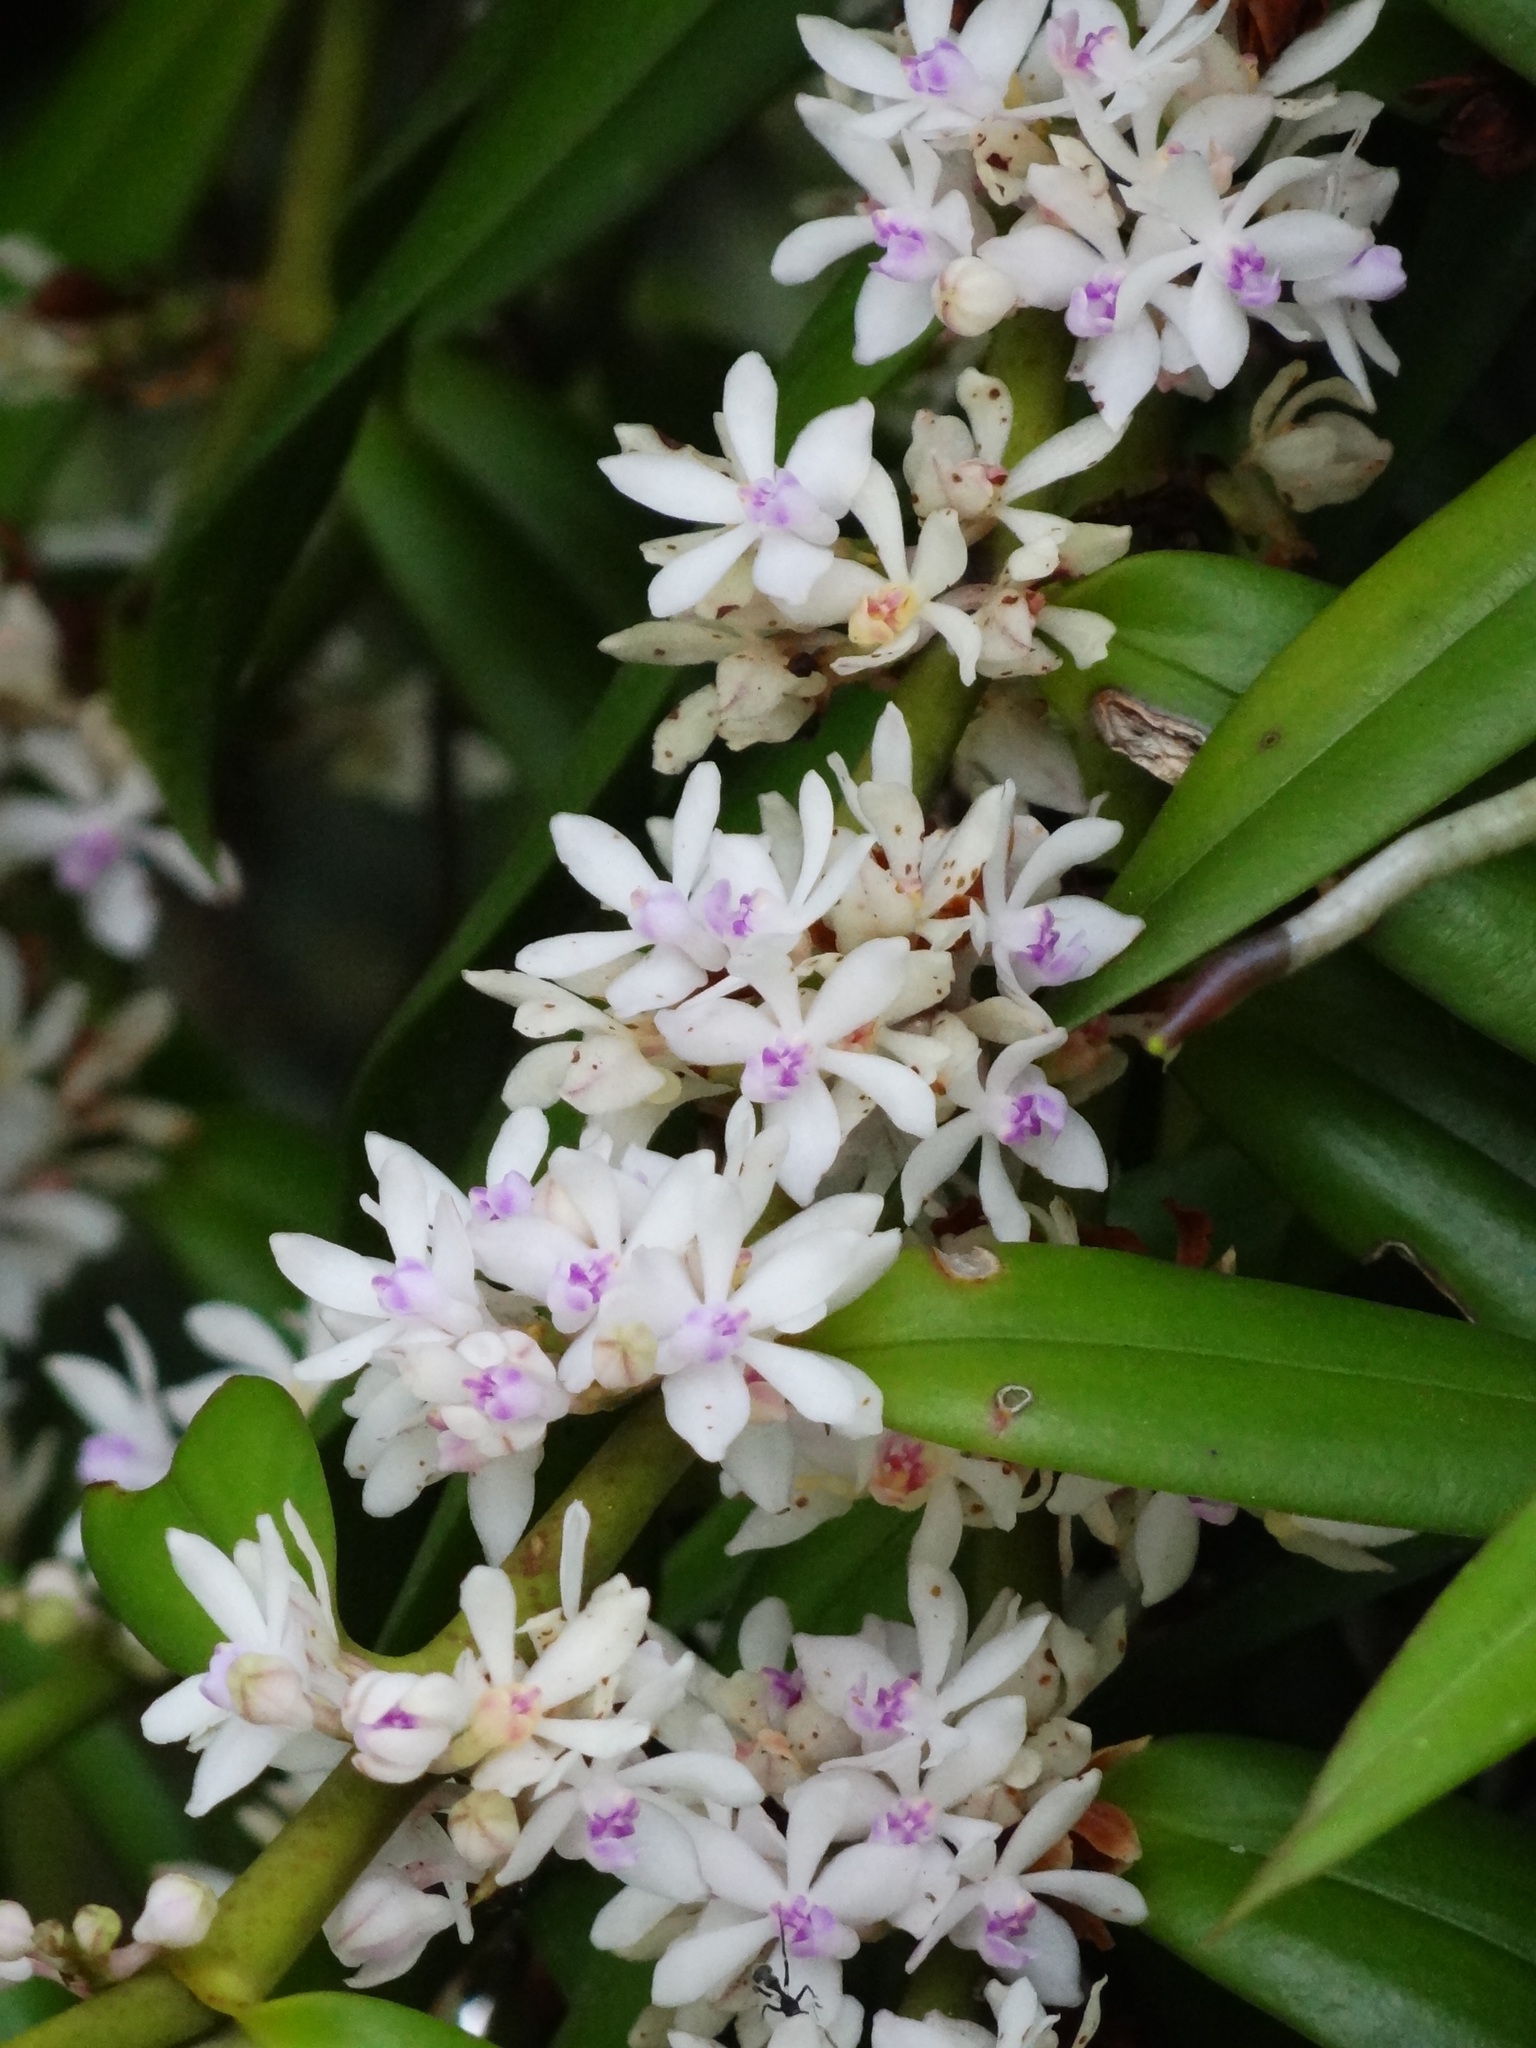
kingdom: Plantae
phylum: Tracheophyta
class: Liliopsida
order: Asparagales
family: Orchidaceae
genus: Trichoglottis
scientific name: Trichoglottis rosea
